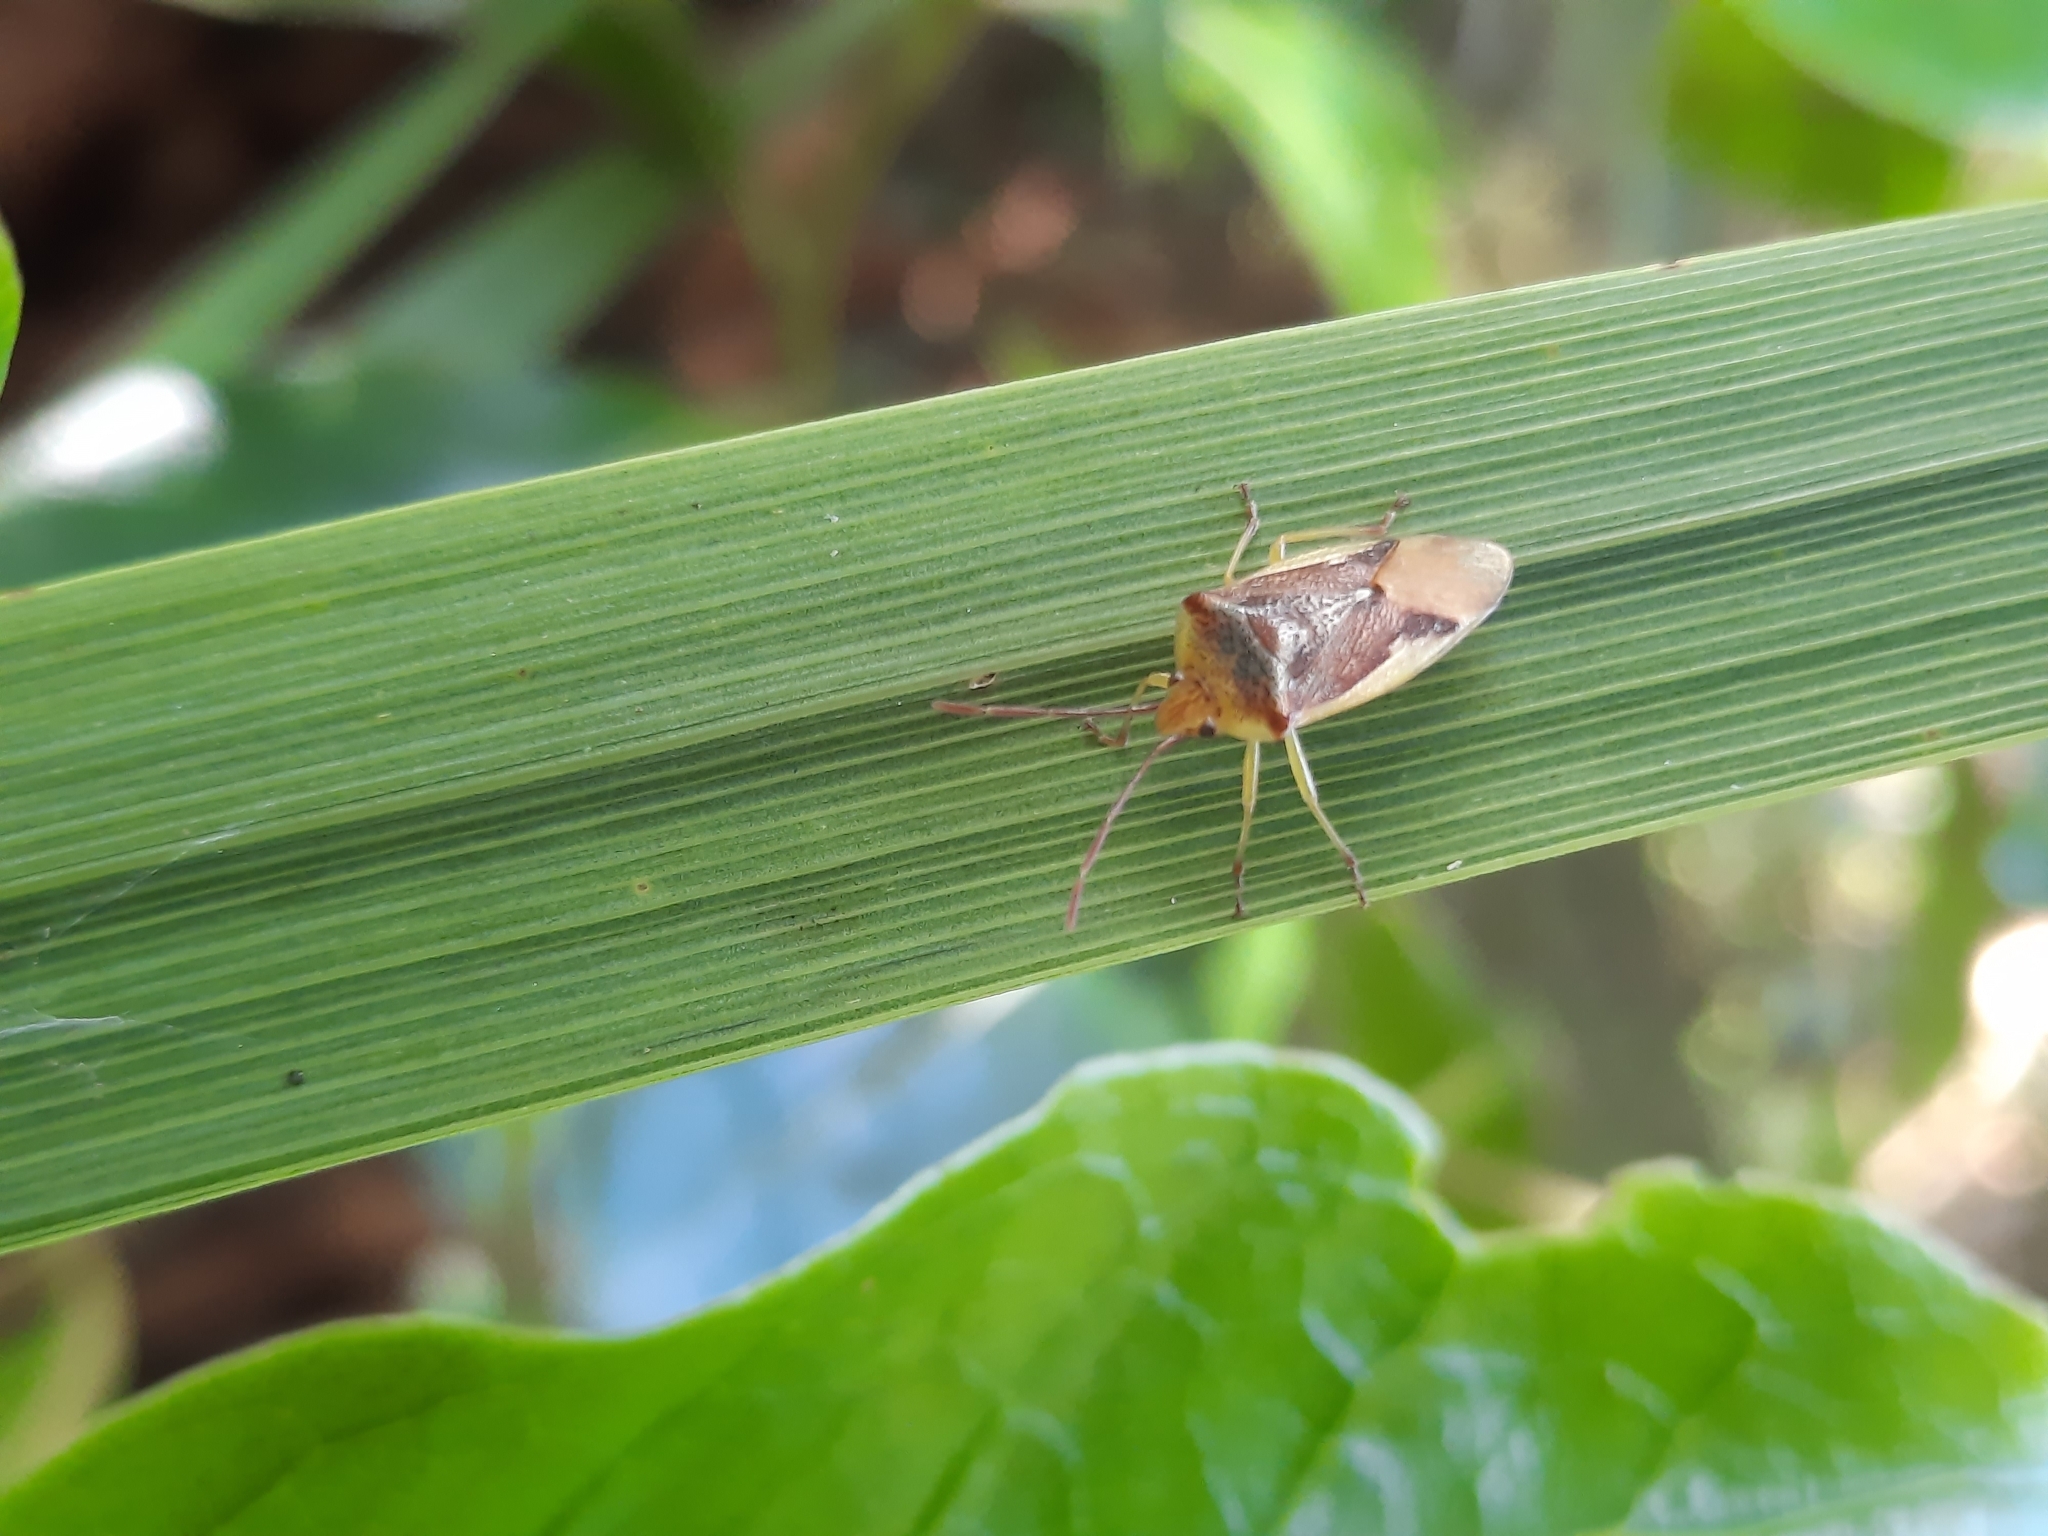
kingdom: Animalia
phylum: Arthropoda
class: Insecta
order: Hemiptera
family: Acanthosomatidae
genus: Oncacontias
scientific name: Oncacontias vittatus
